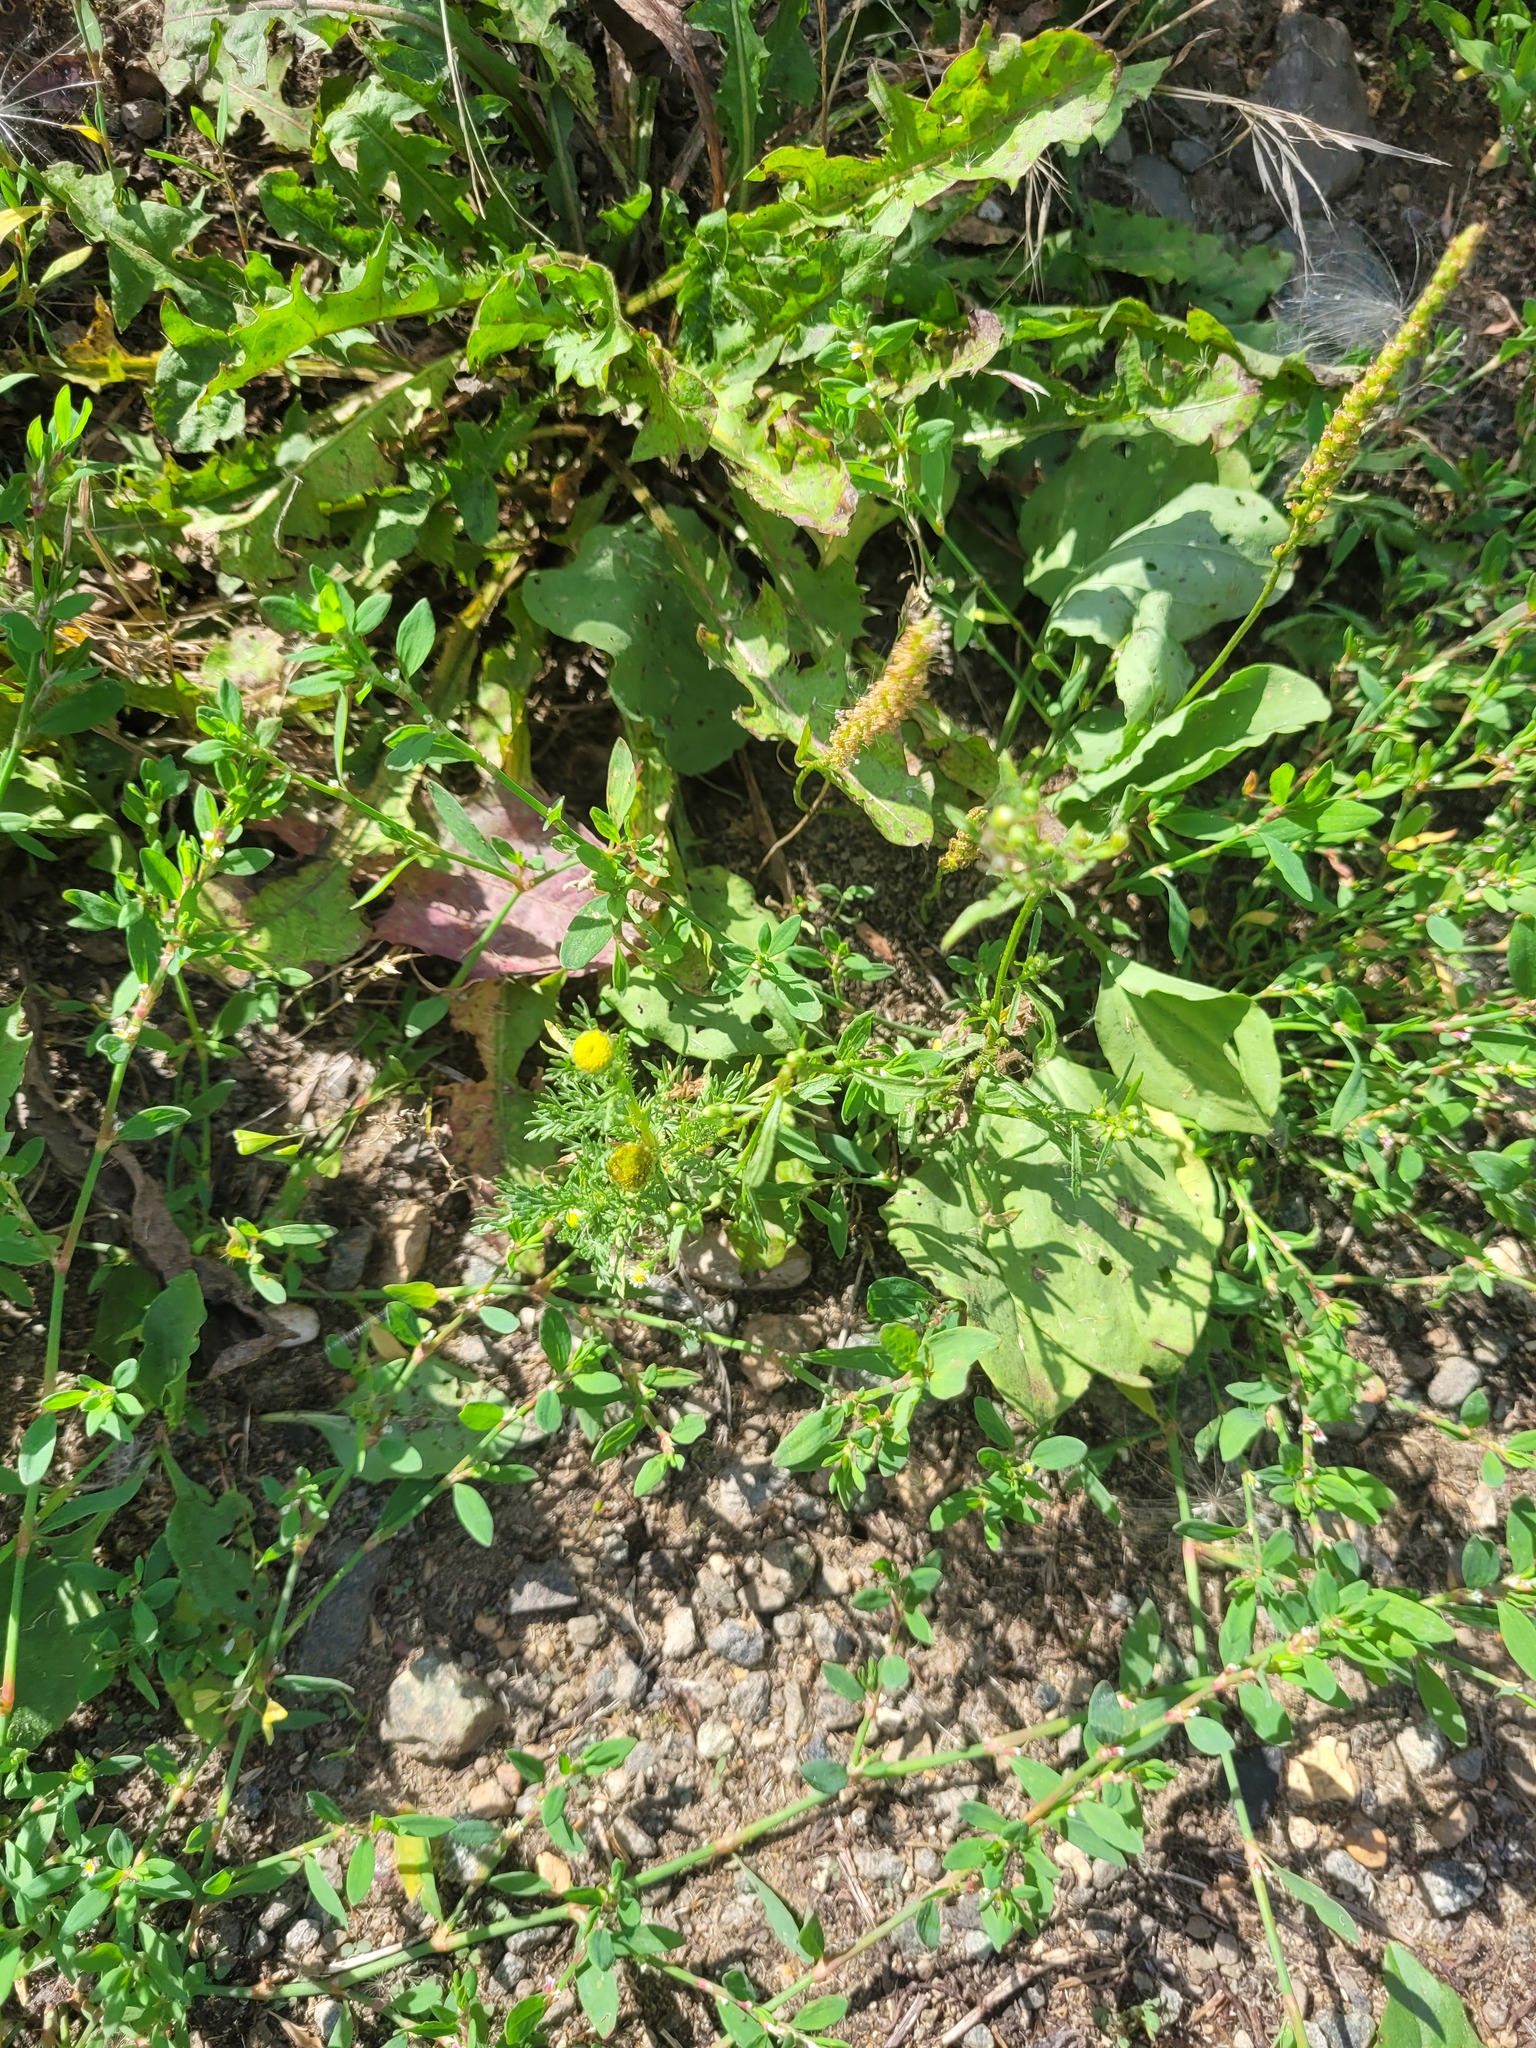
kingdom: Plantae
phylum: Tracheophyta
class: Magnoliopsida
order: Asterales
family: Asteraceae
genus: Matricaria
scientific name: Matricaria discoidea
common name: Disc mayweed
